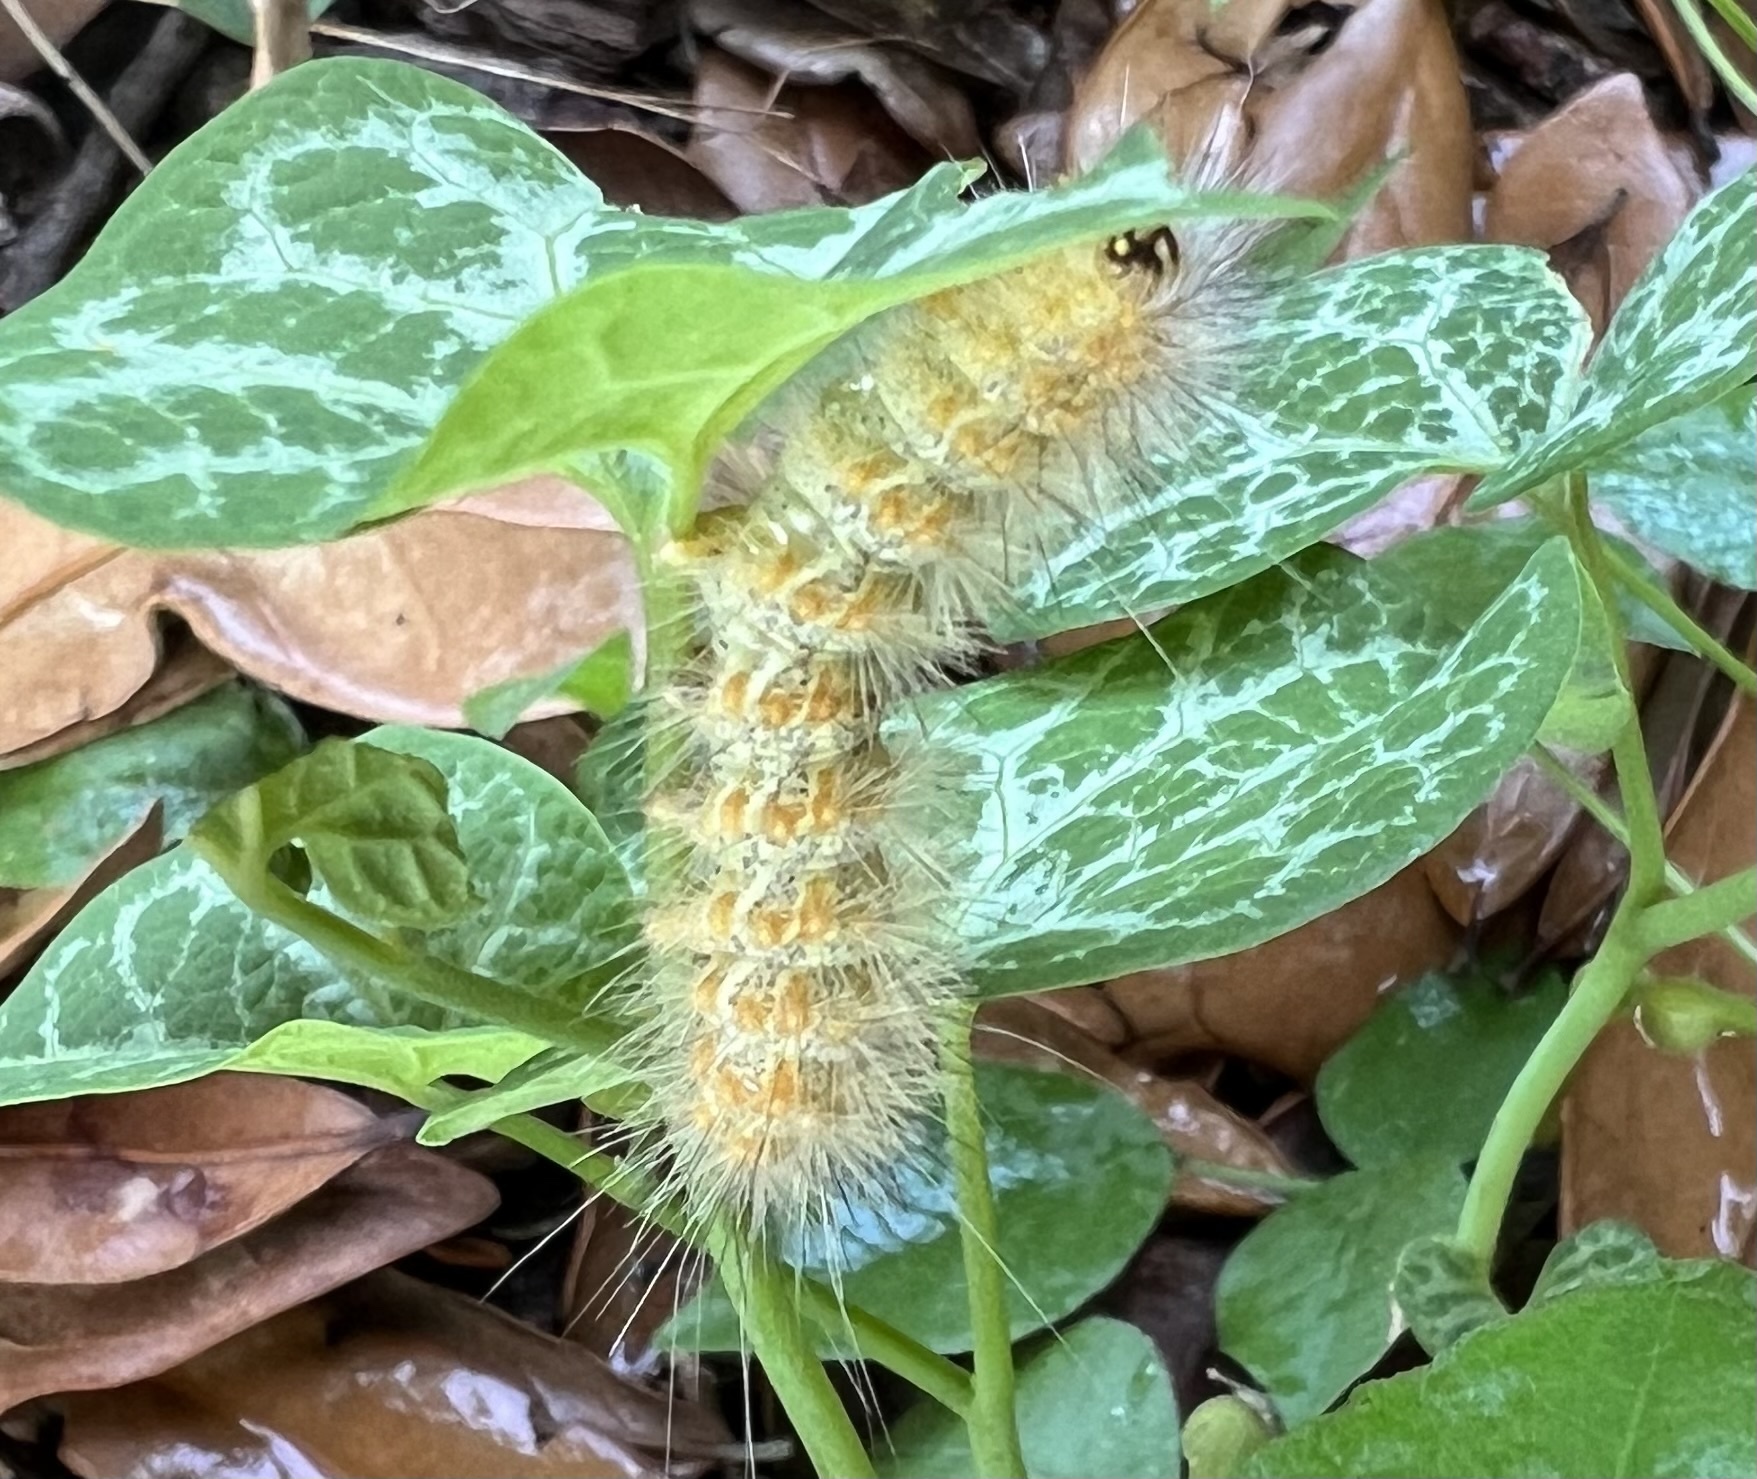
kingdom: Animalia
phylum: Arthropoda
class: Insecta
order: Lepidoptera
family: Erebidae
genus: Estigmene
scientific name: Estigmene acrea
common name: Salt marsh moth
